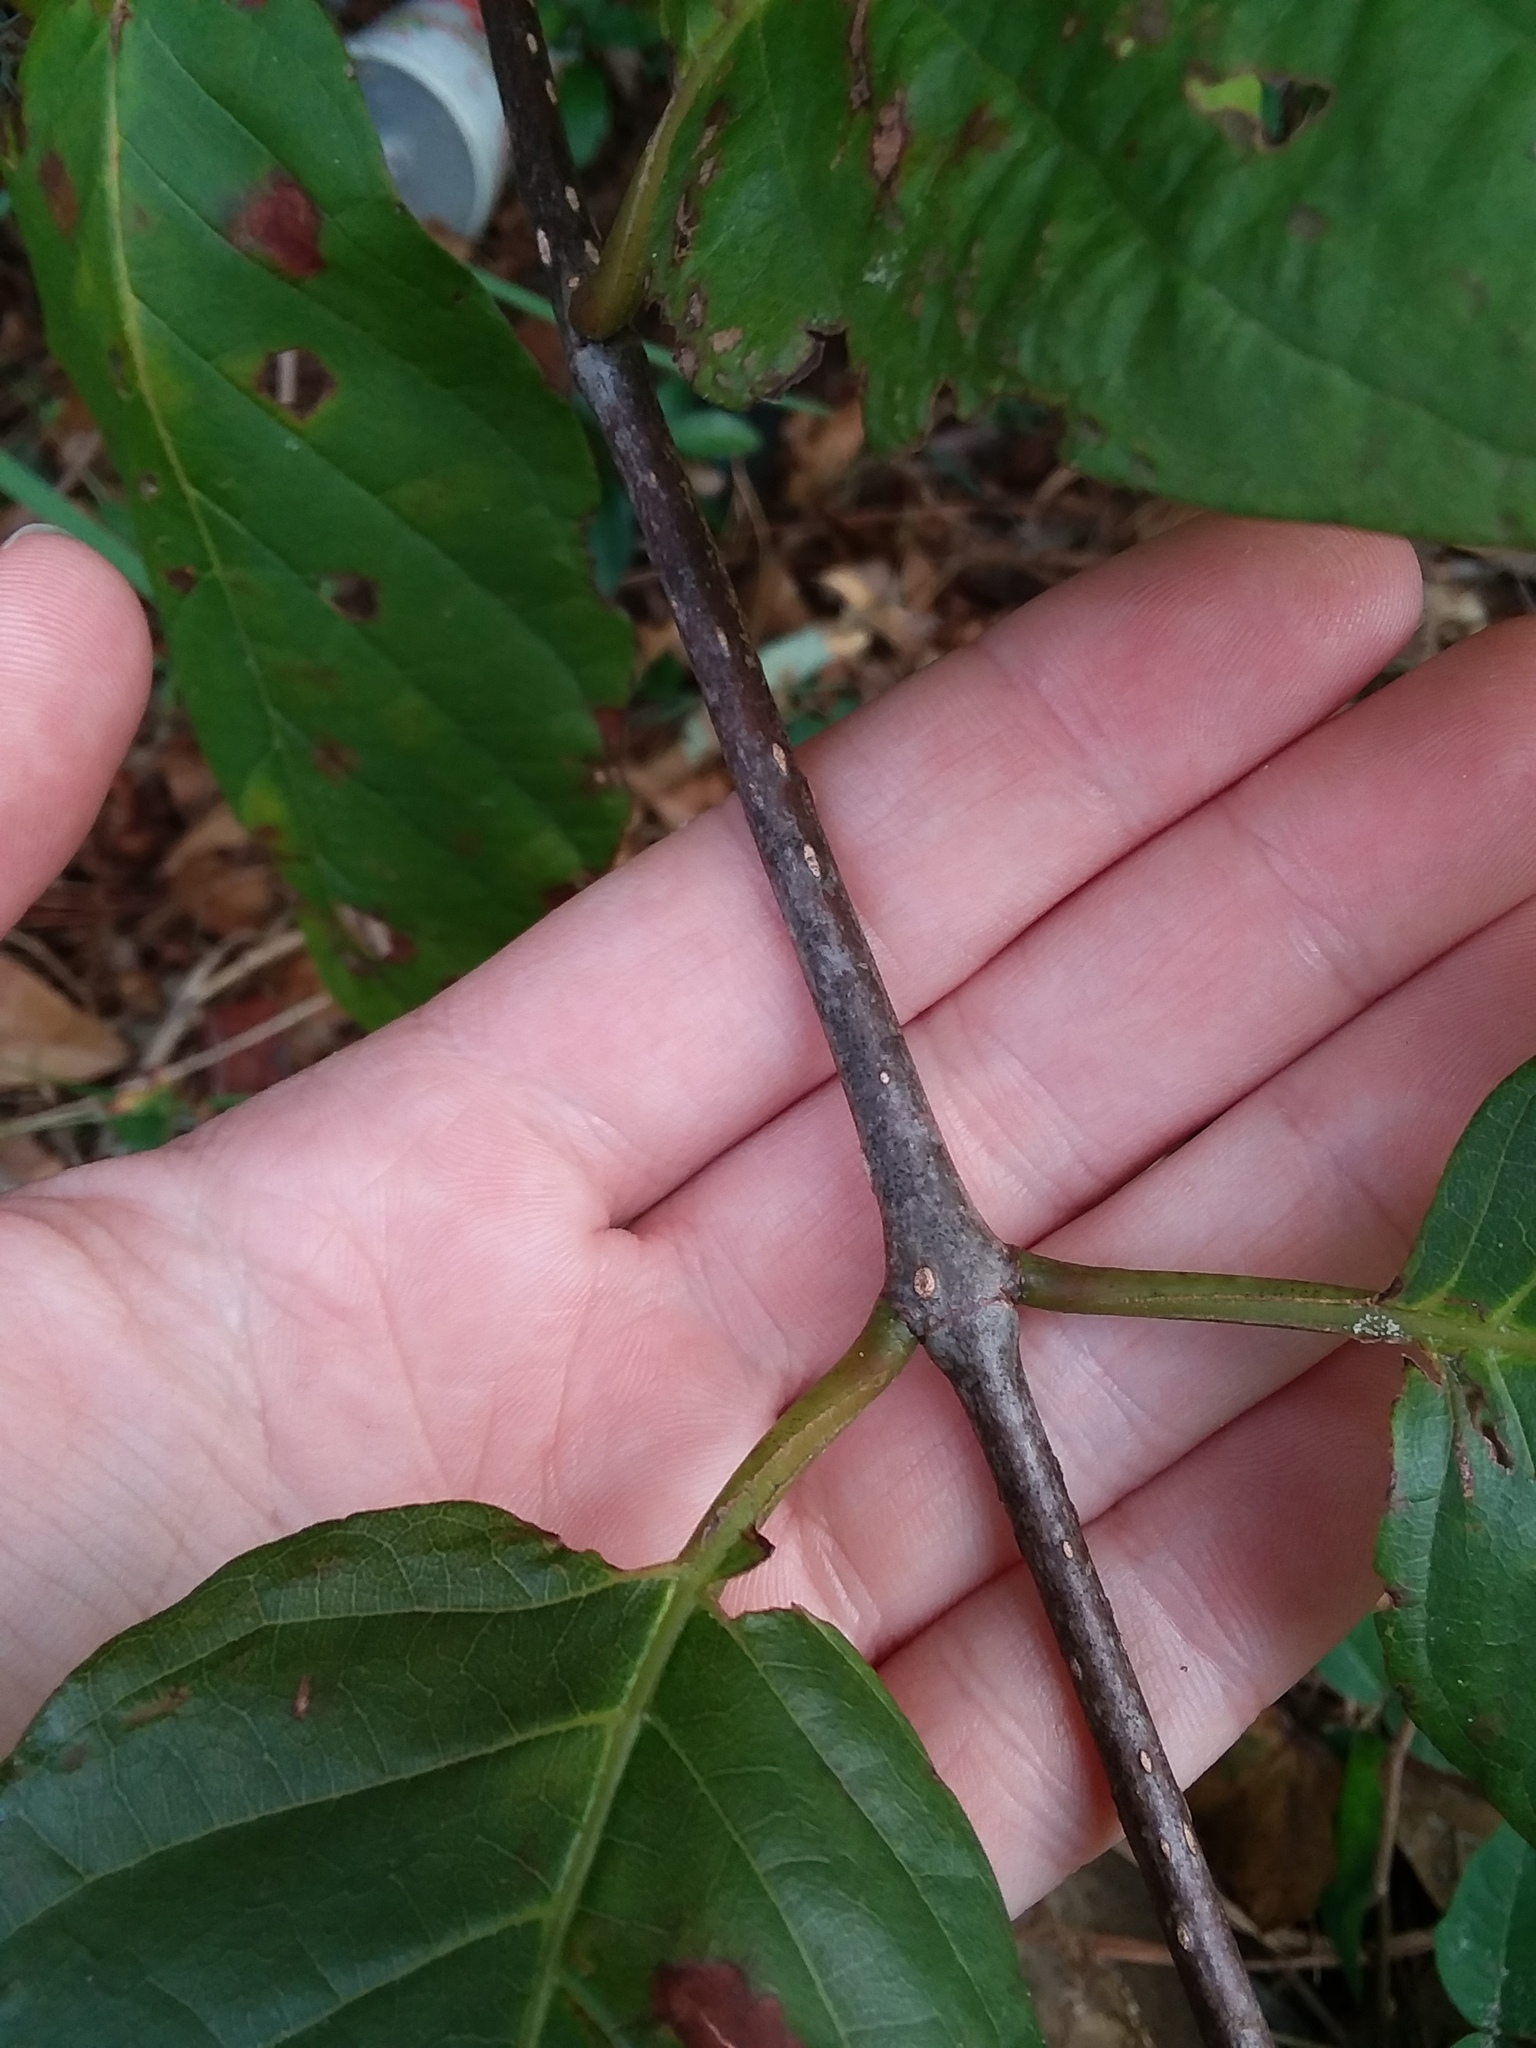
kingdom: Plantae
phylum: Tracheophyta
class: Magnoliopsida
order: Gentianales
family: Rubiaceae
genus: Cephalanthus
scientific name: Cephalanthus occidentalis
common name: Button-willow
